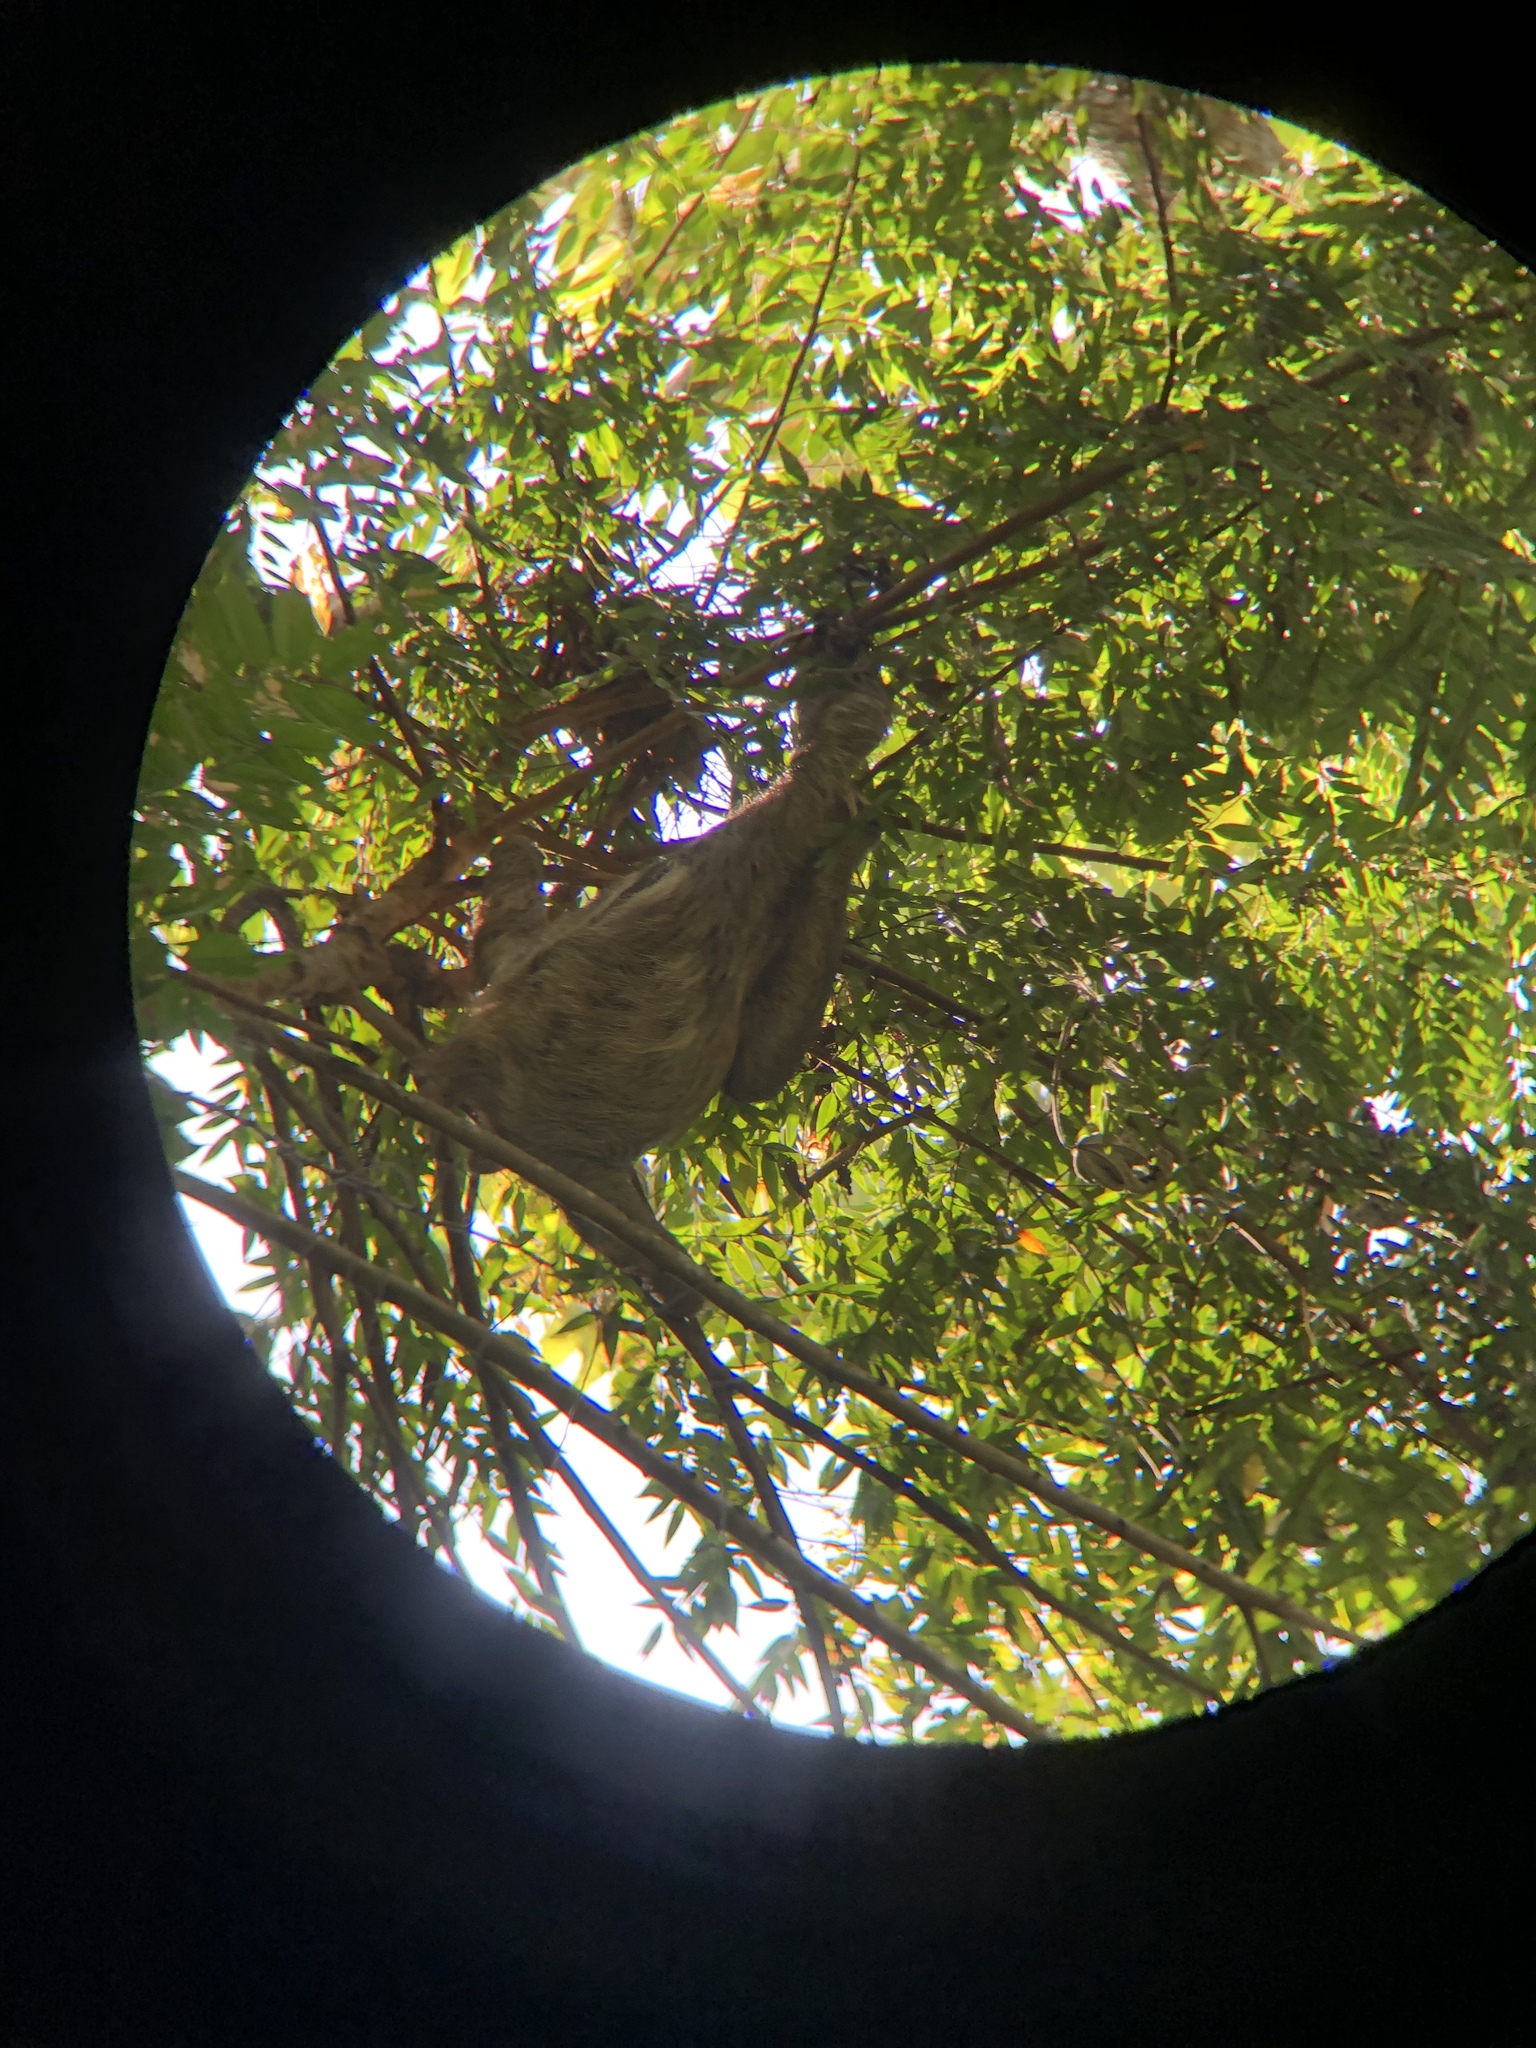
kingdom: Animalia
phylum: Chordata
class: Mammalia
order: Pilosa
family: Bradypodidae
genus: Bradypus
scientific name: Bradypus variegatus
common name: Brown-throated three-toed sloth
